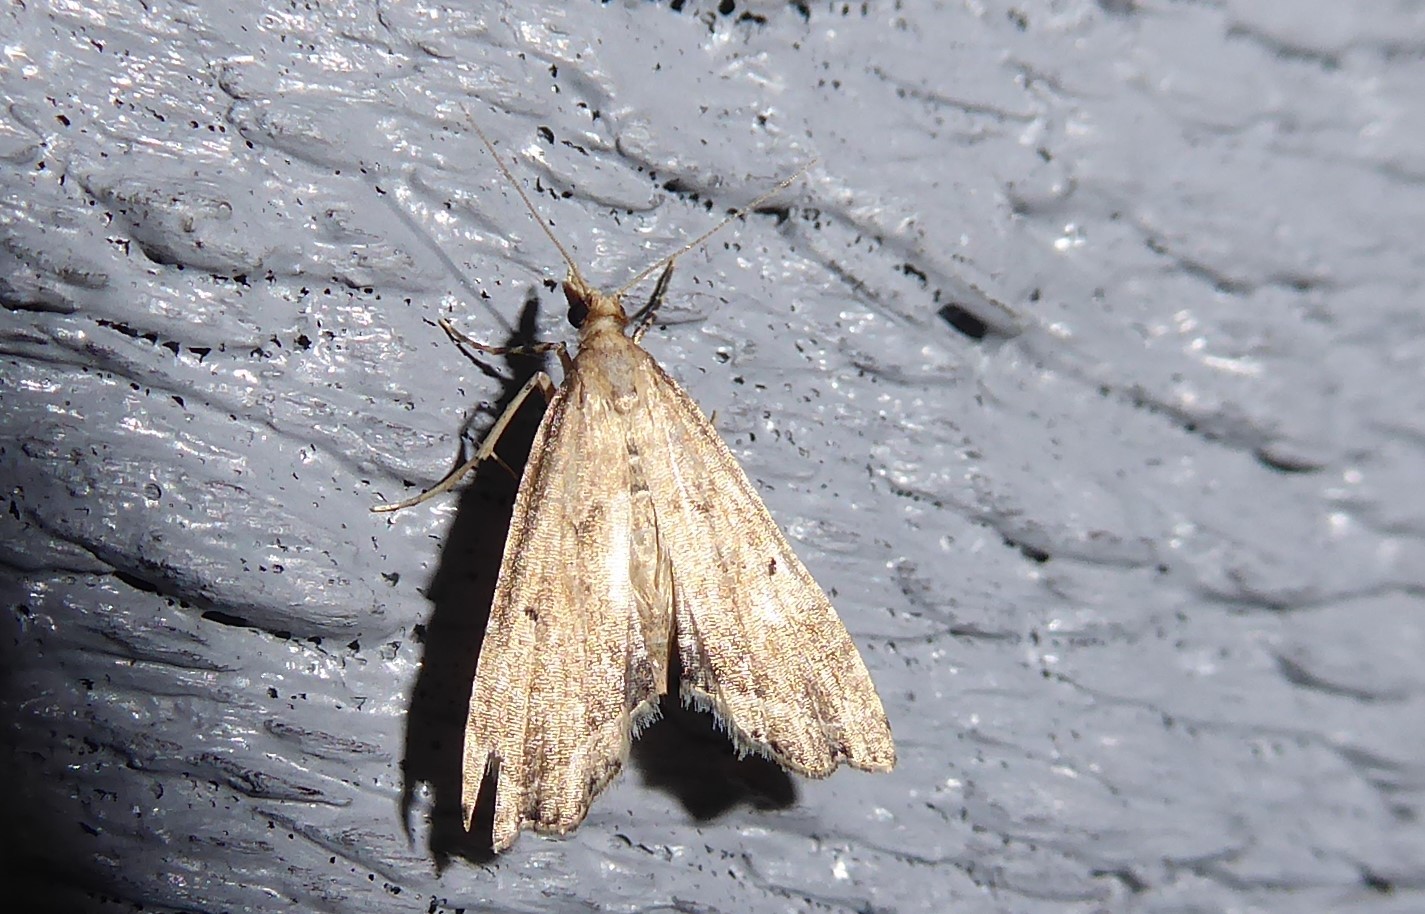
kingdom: Animalia
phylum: Arthropoda
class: Insecta
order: Lepidoptera
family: Crambidae
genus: Diplopseustis
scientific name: Diplopseustis perieresalis
